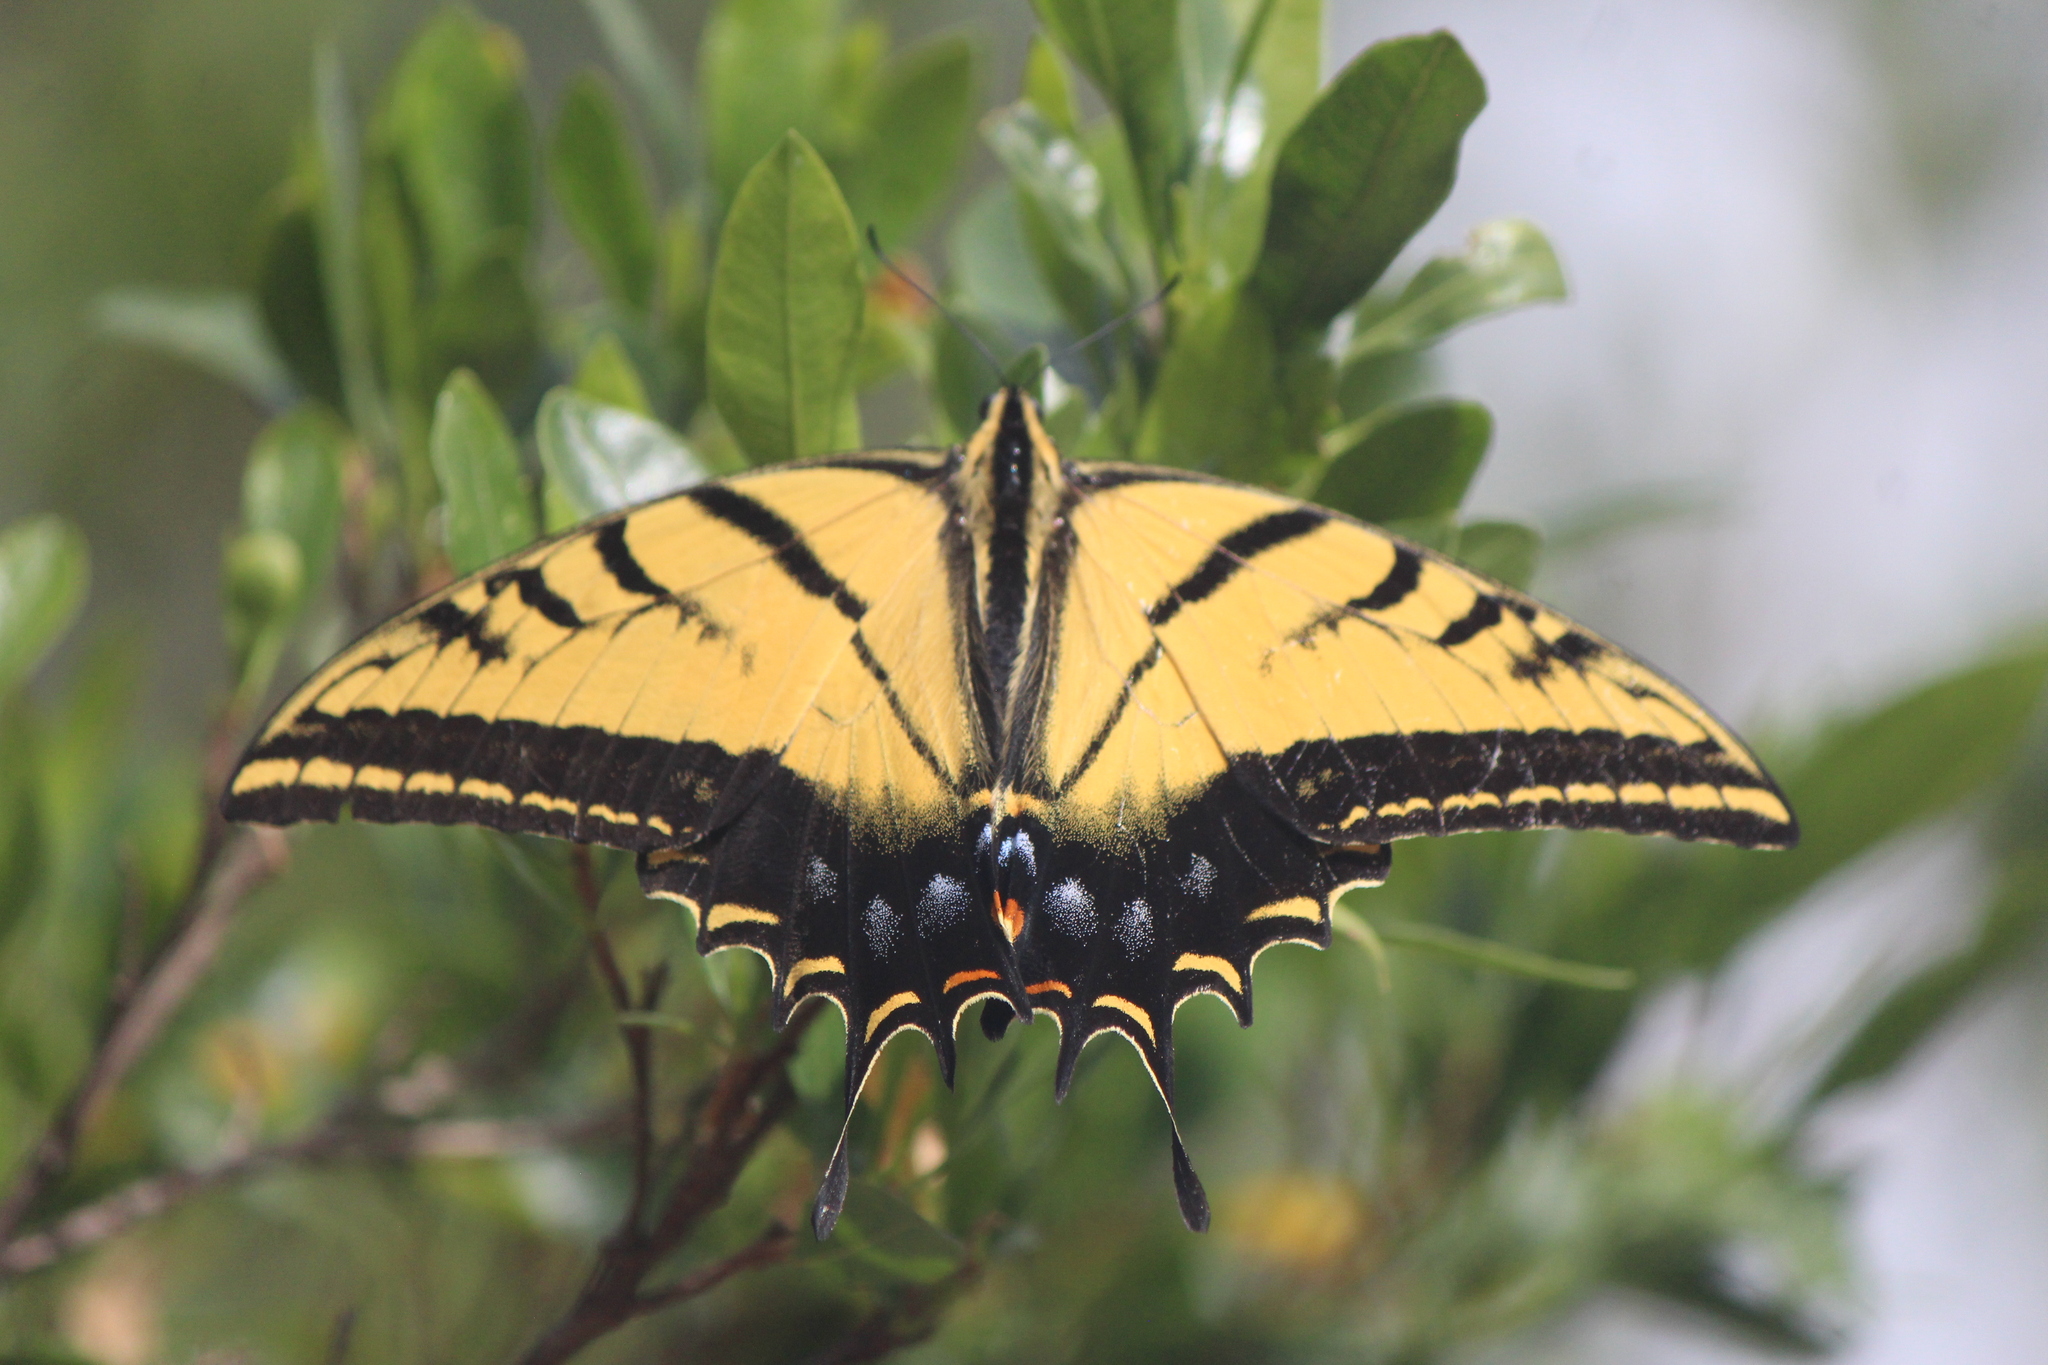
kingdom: Animalia
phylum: Arthropoda
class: Insecta
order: Lepidoptera
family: Papilionidae
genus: Papilio
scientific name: Papilio multicaudata
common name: Two-tailed tiger swallowtail
